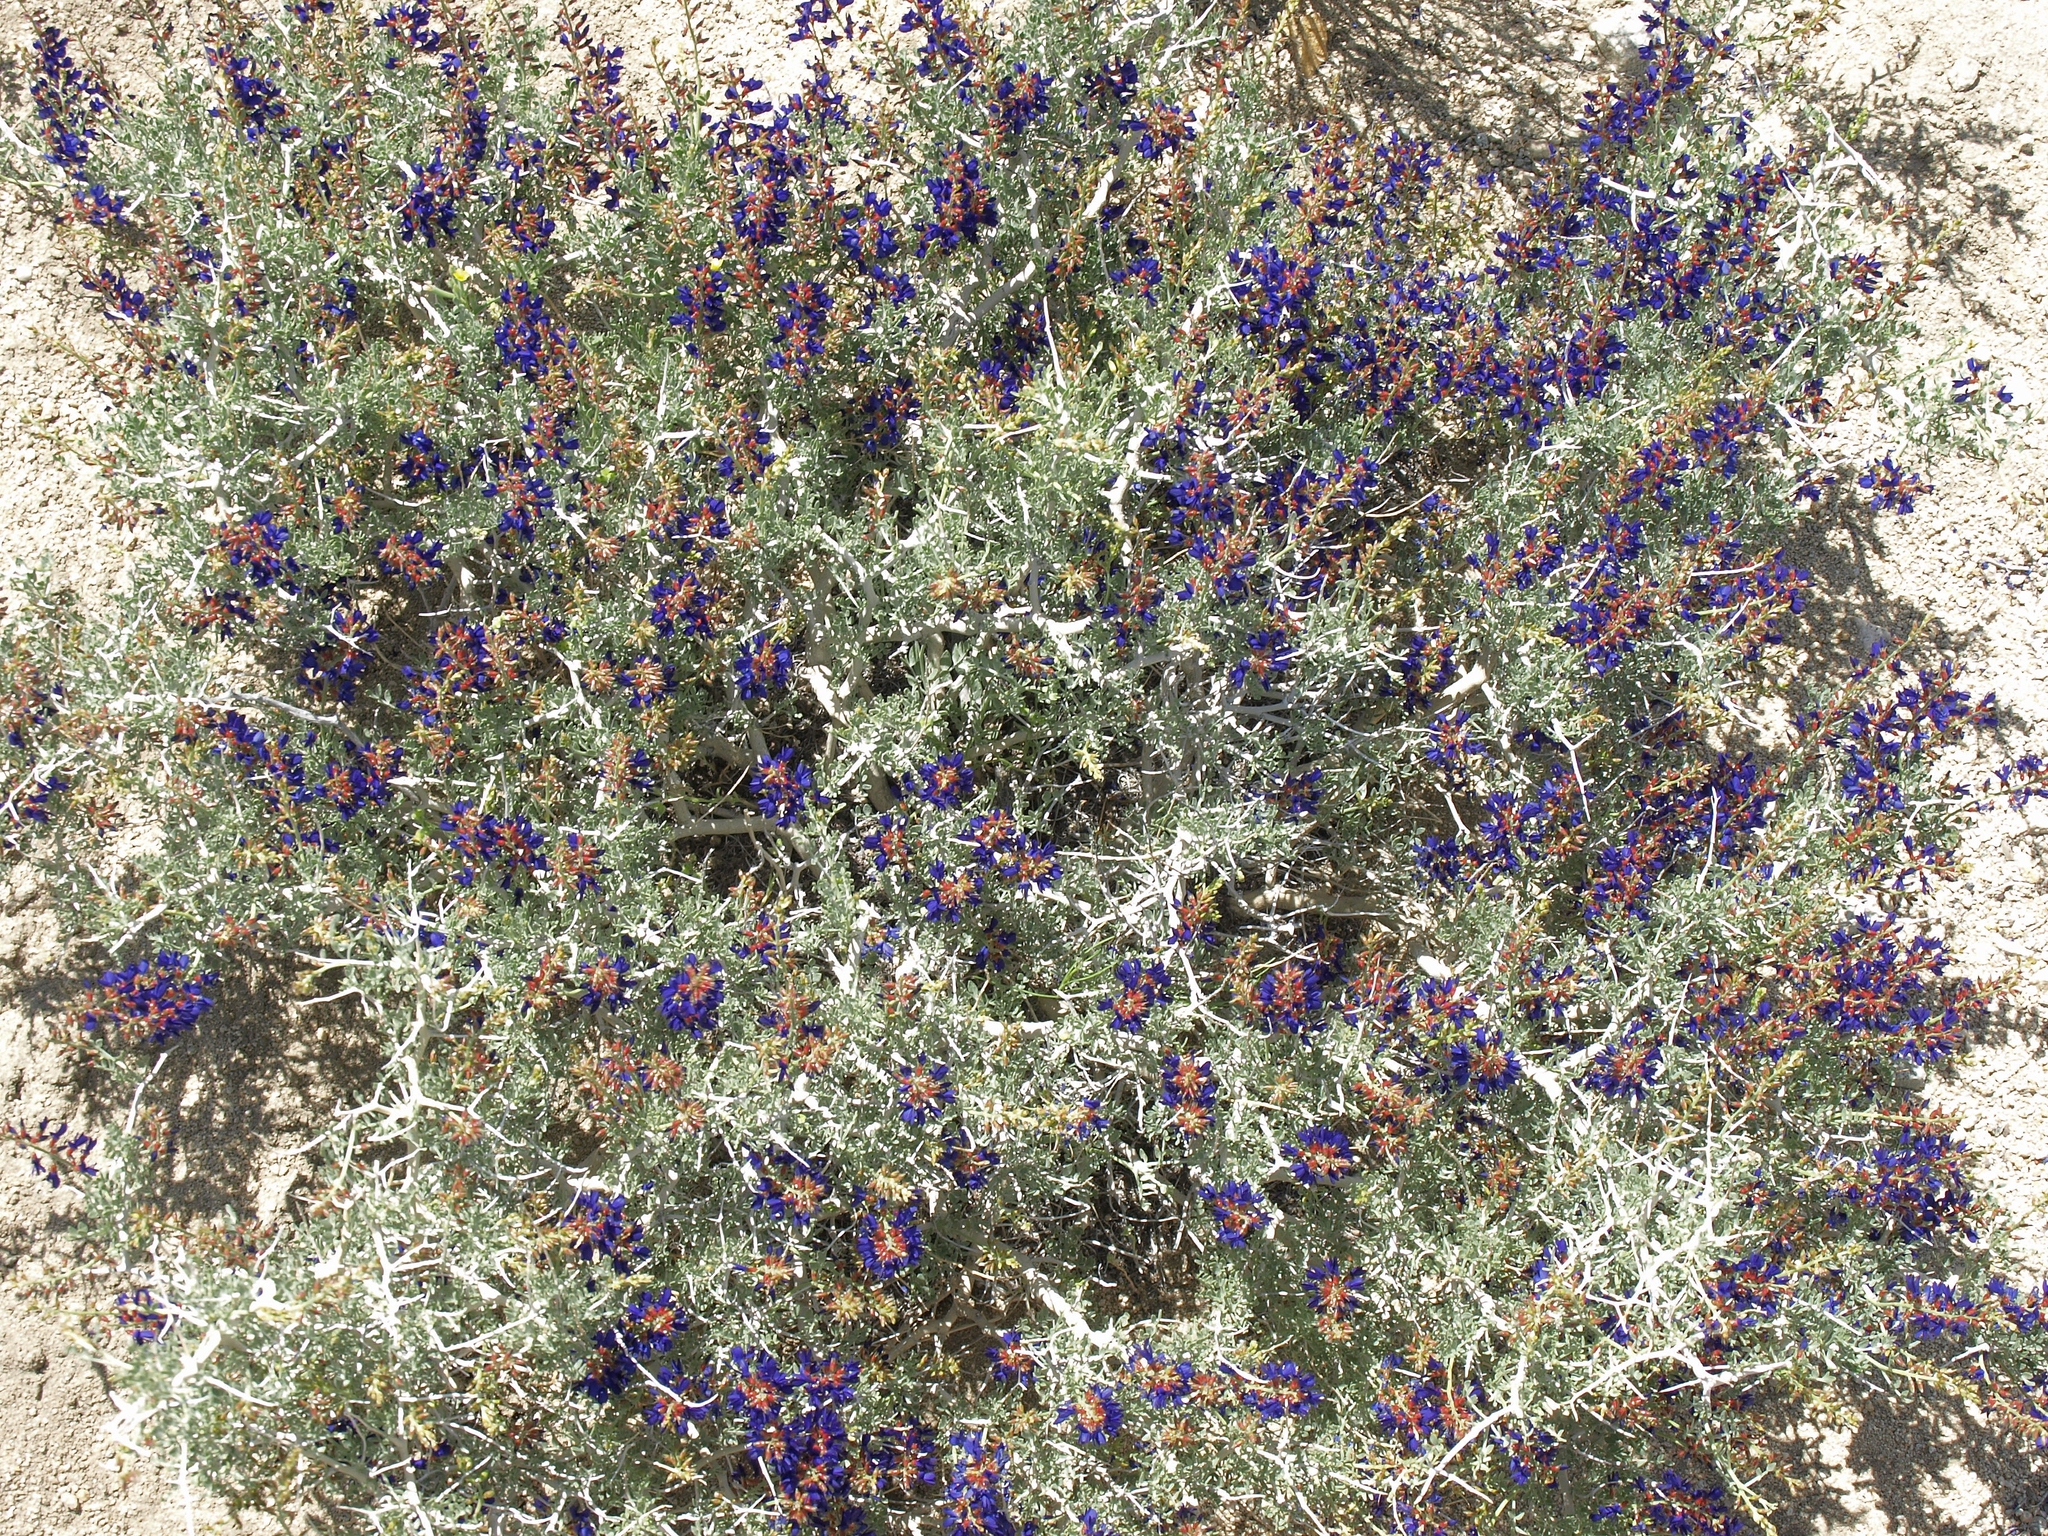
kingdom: Plantae
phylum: Tracheophyta
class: Magnoliopsida
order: Fabales
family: Fabaceae
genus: Psorothamnus
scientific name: Psorothamnus arborescens
